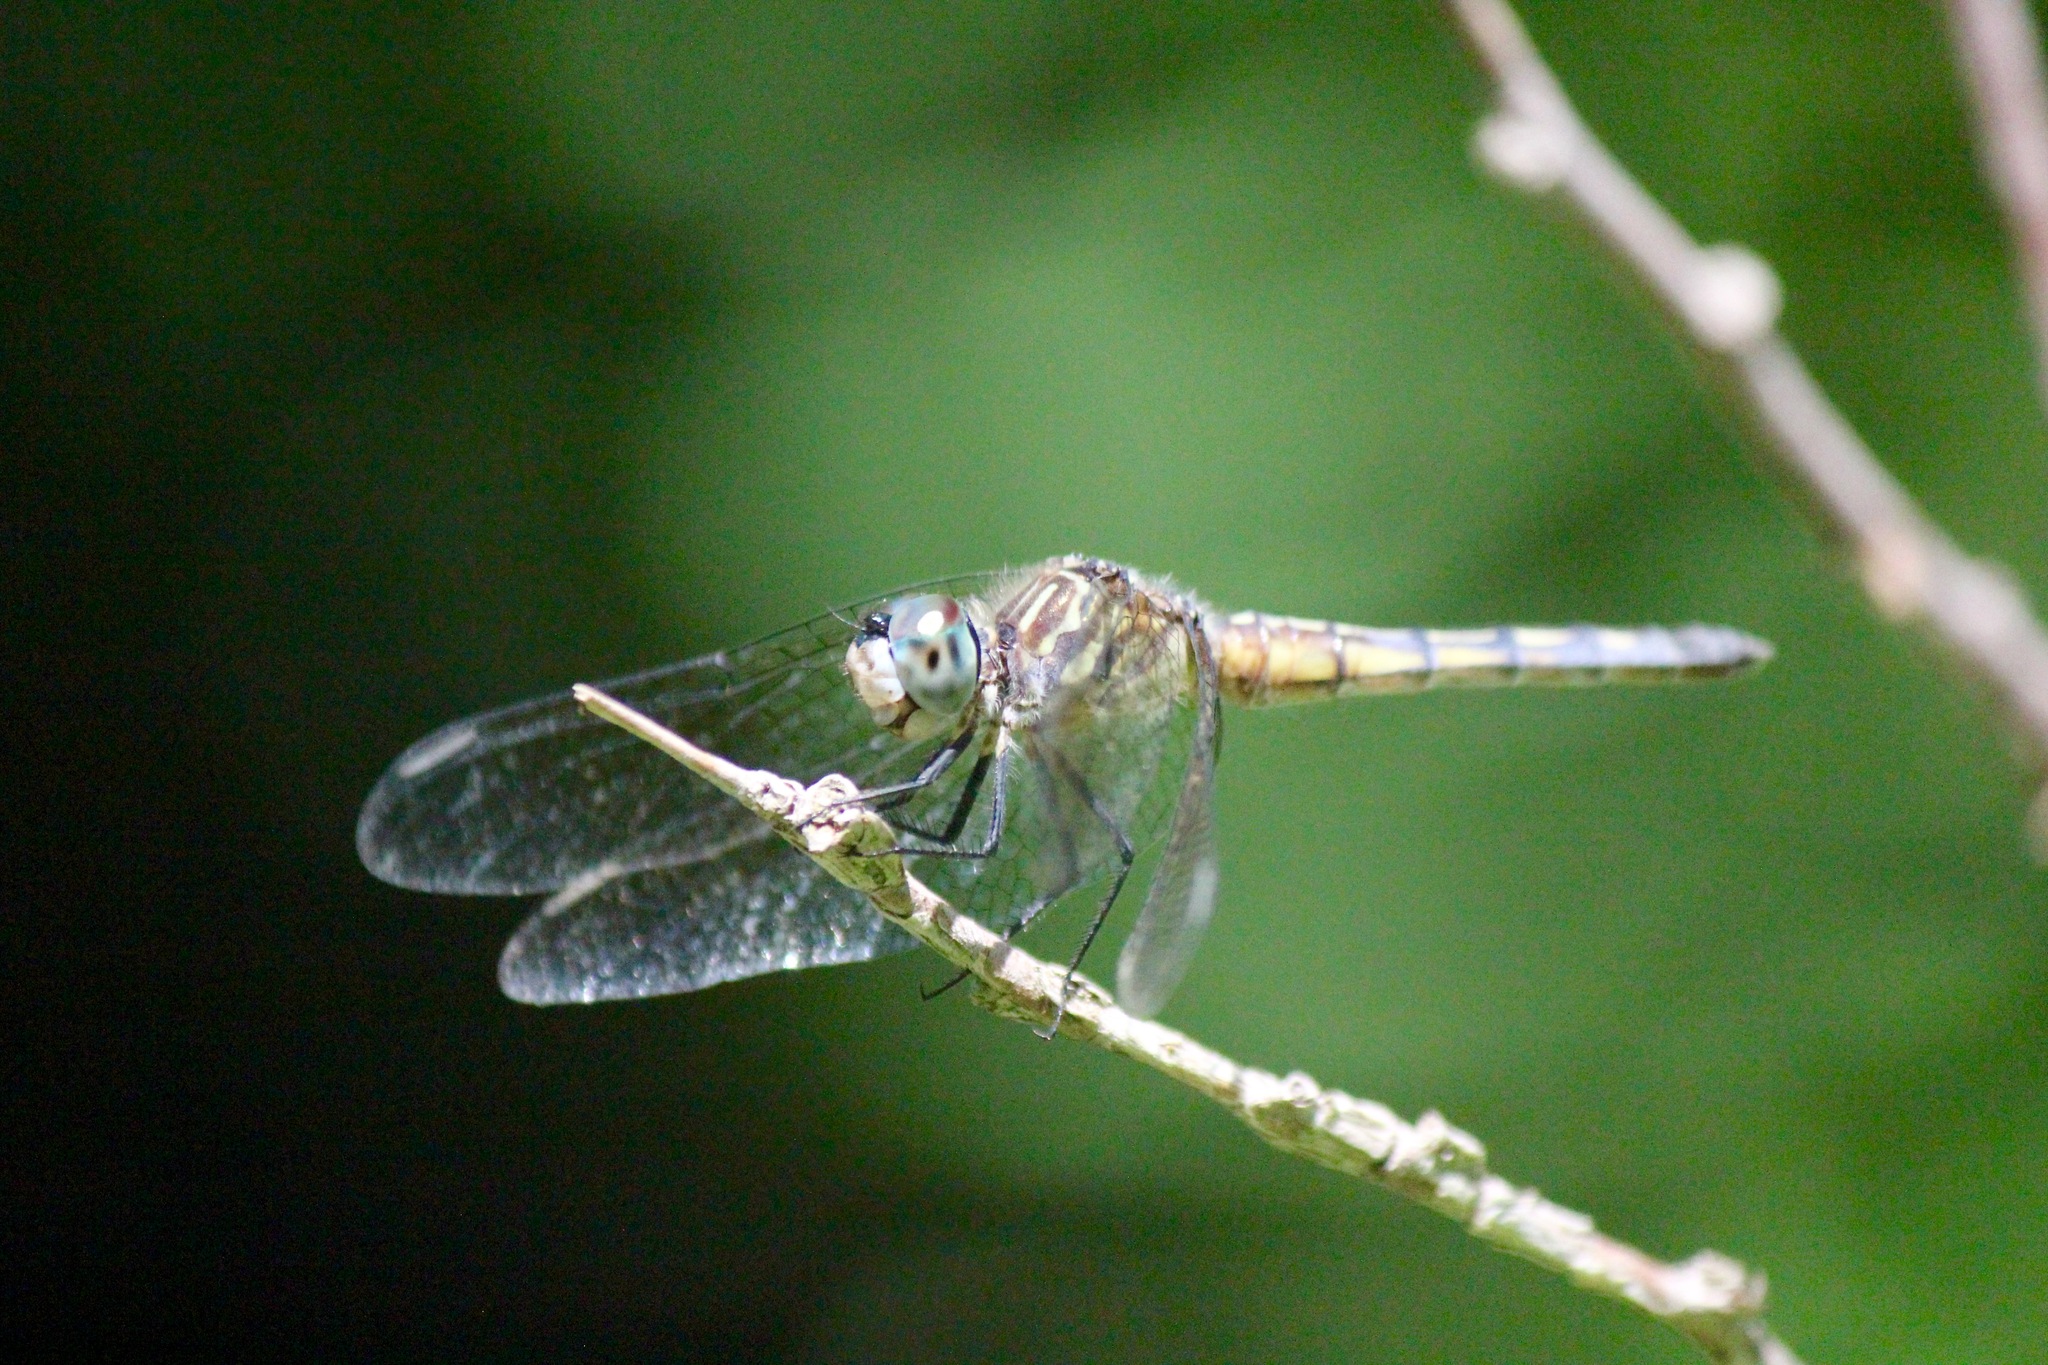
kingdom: Animalia
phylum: Arthropoda
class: Insecta
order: Odonata
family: Libellulidae
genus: Pachydiplax
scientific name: Pachydiplax longipennis
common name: Blue dasher
